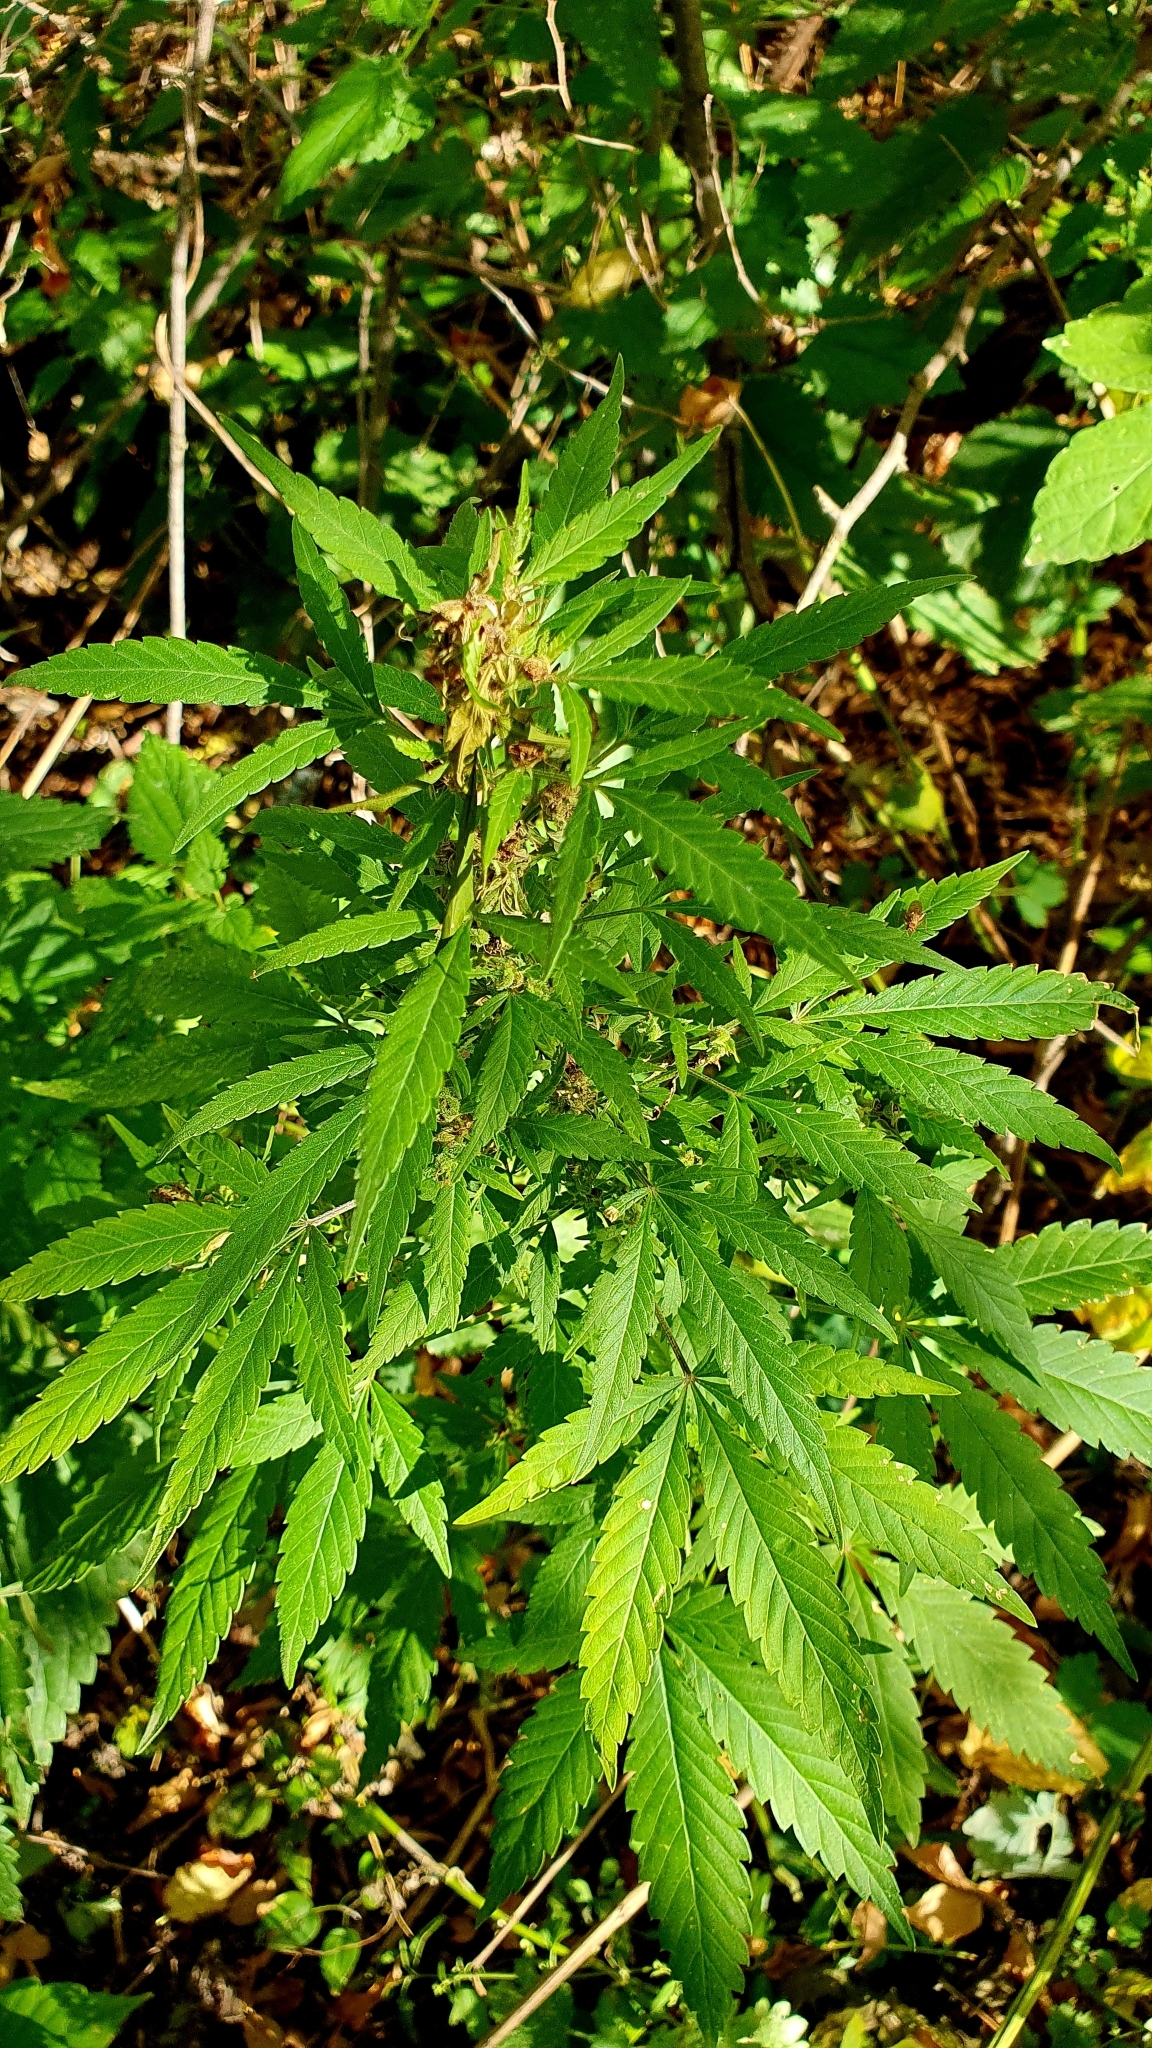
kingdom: Plantae
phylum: Tracheophyta
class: Magnoliopsida
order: Rosales
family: Cannabaceae
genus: Cannabis
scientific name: Cannabis sativa
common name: Hemp
